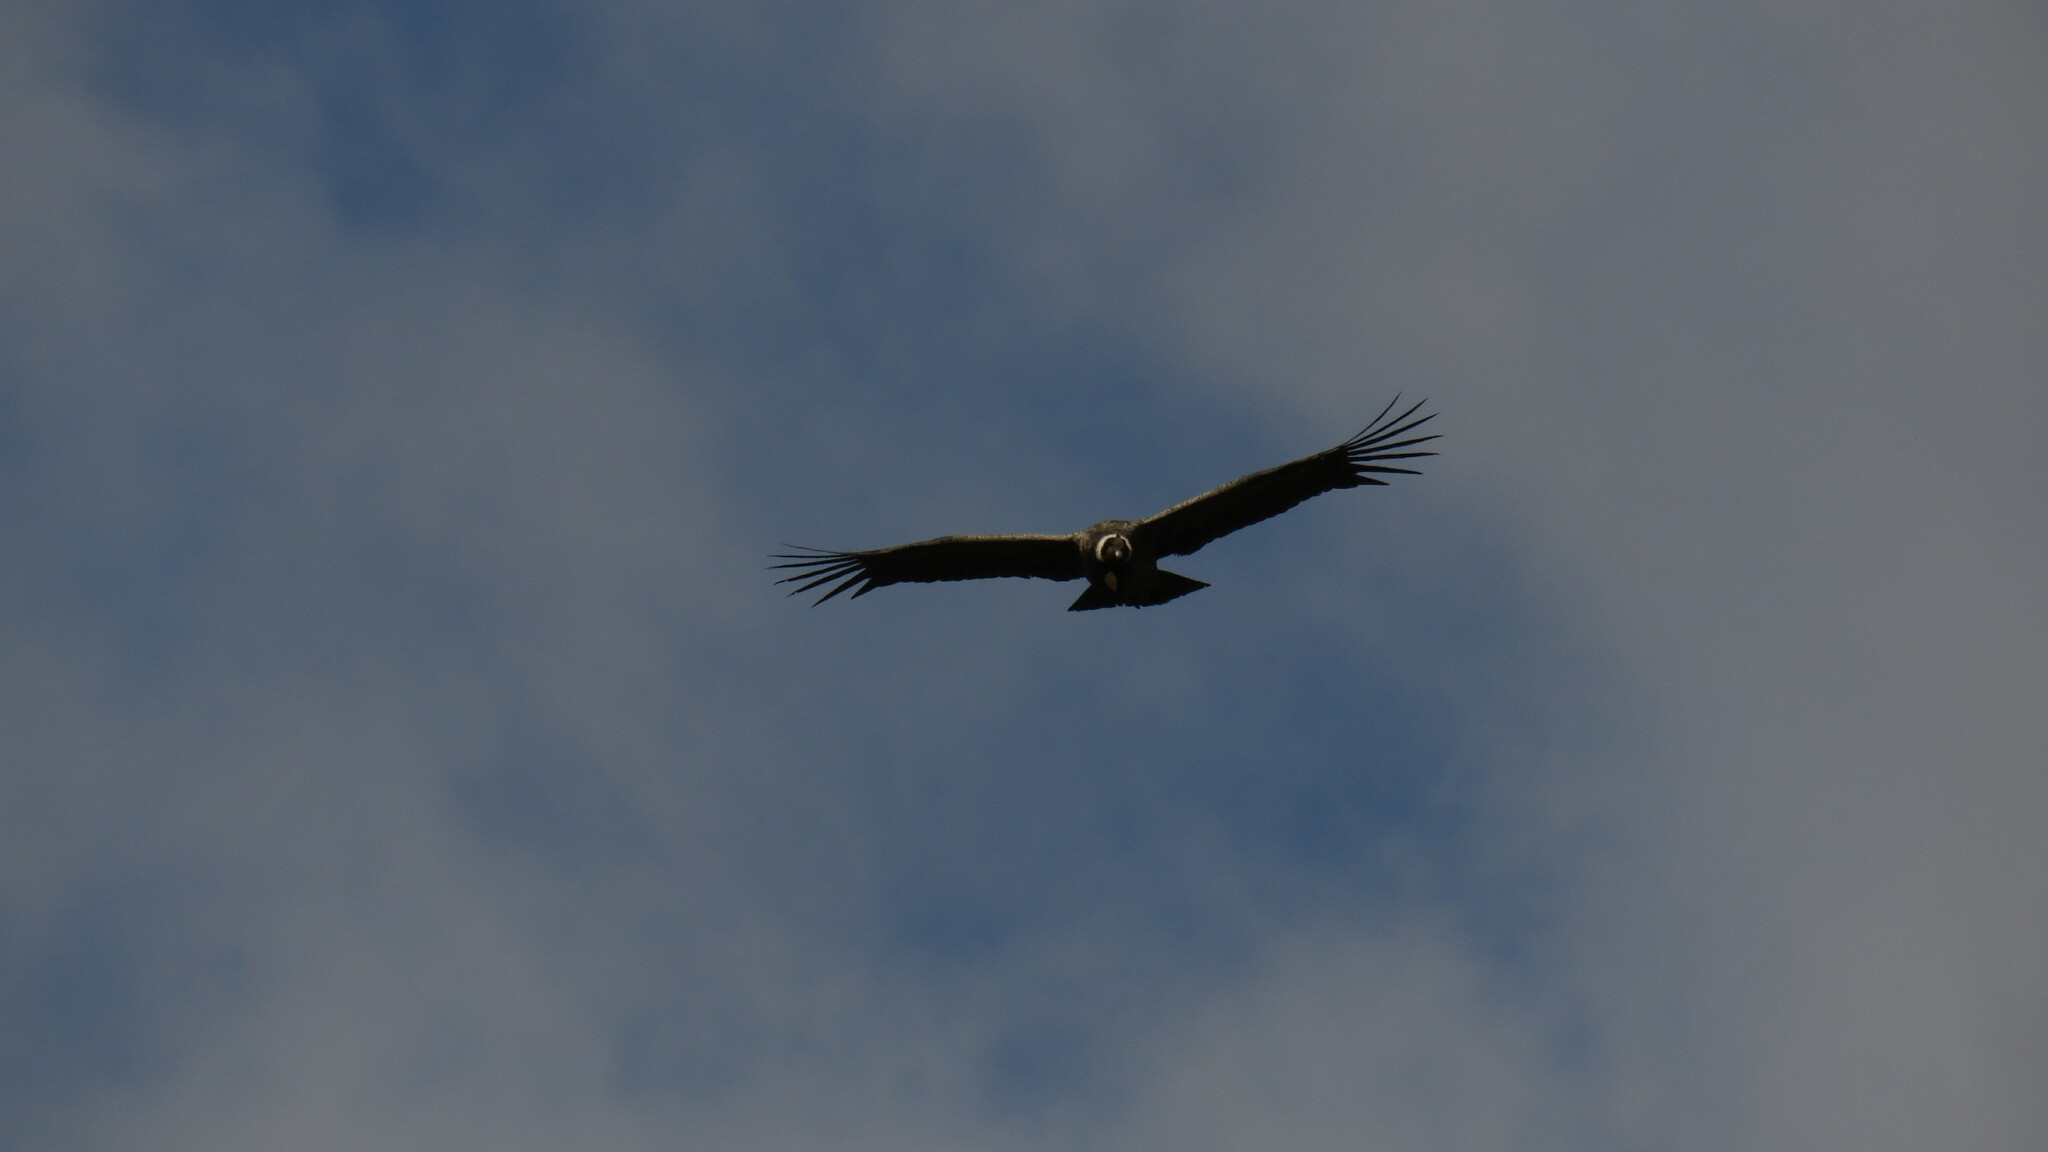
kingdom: Animalia
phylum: Chordata
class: Aves
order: Accipitriformes
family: Cathartidae
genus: Vultur
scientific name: Vultur gryphus
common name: Andean condor
